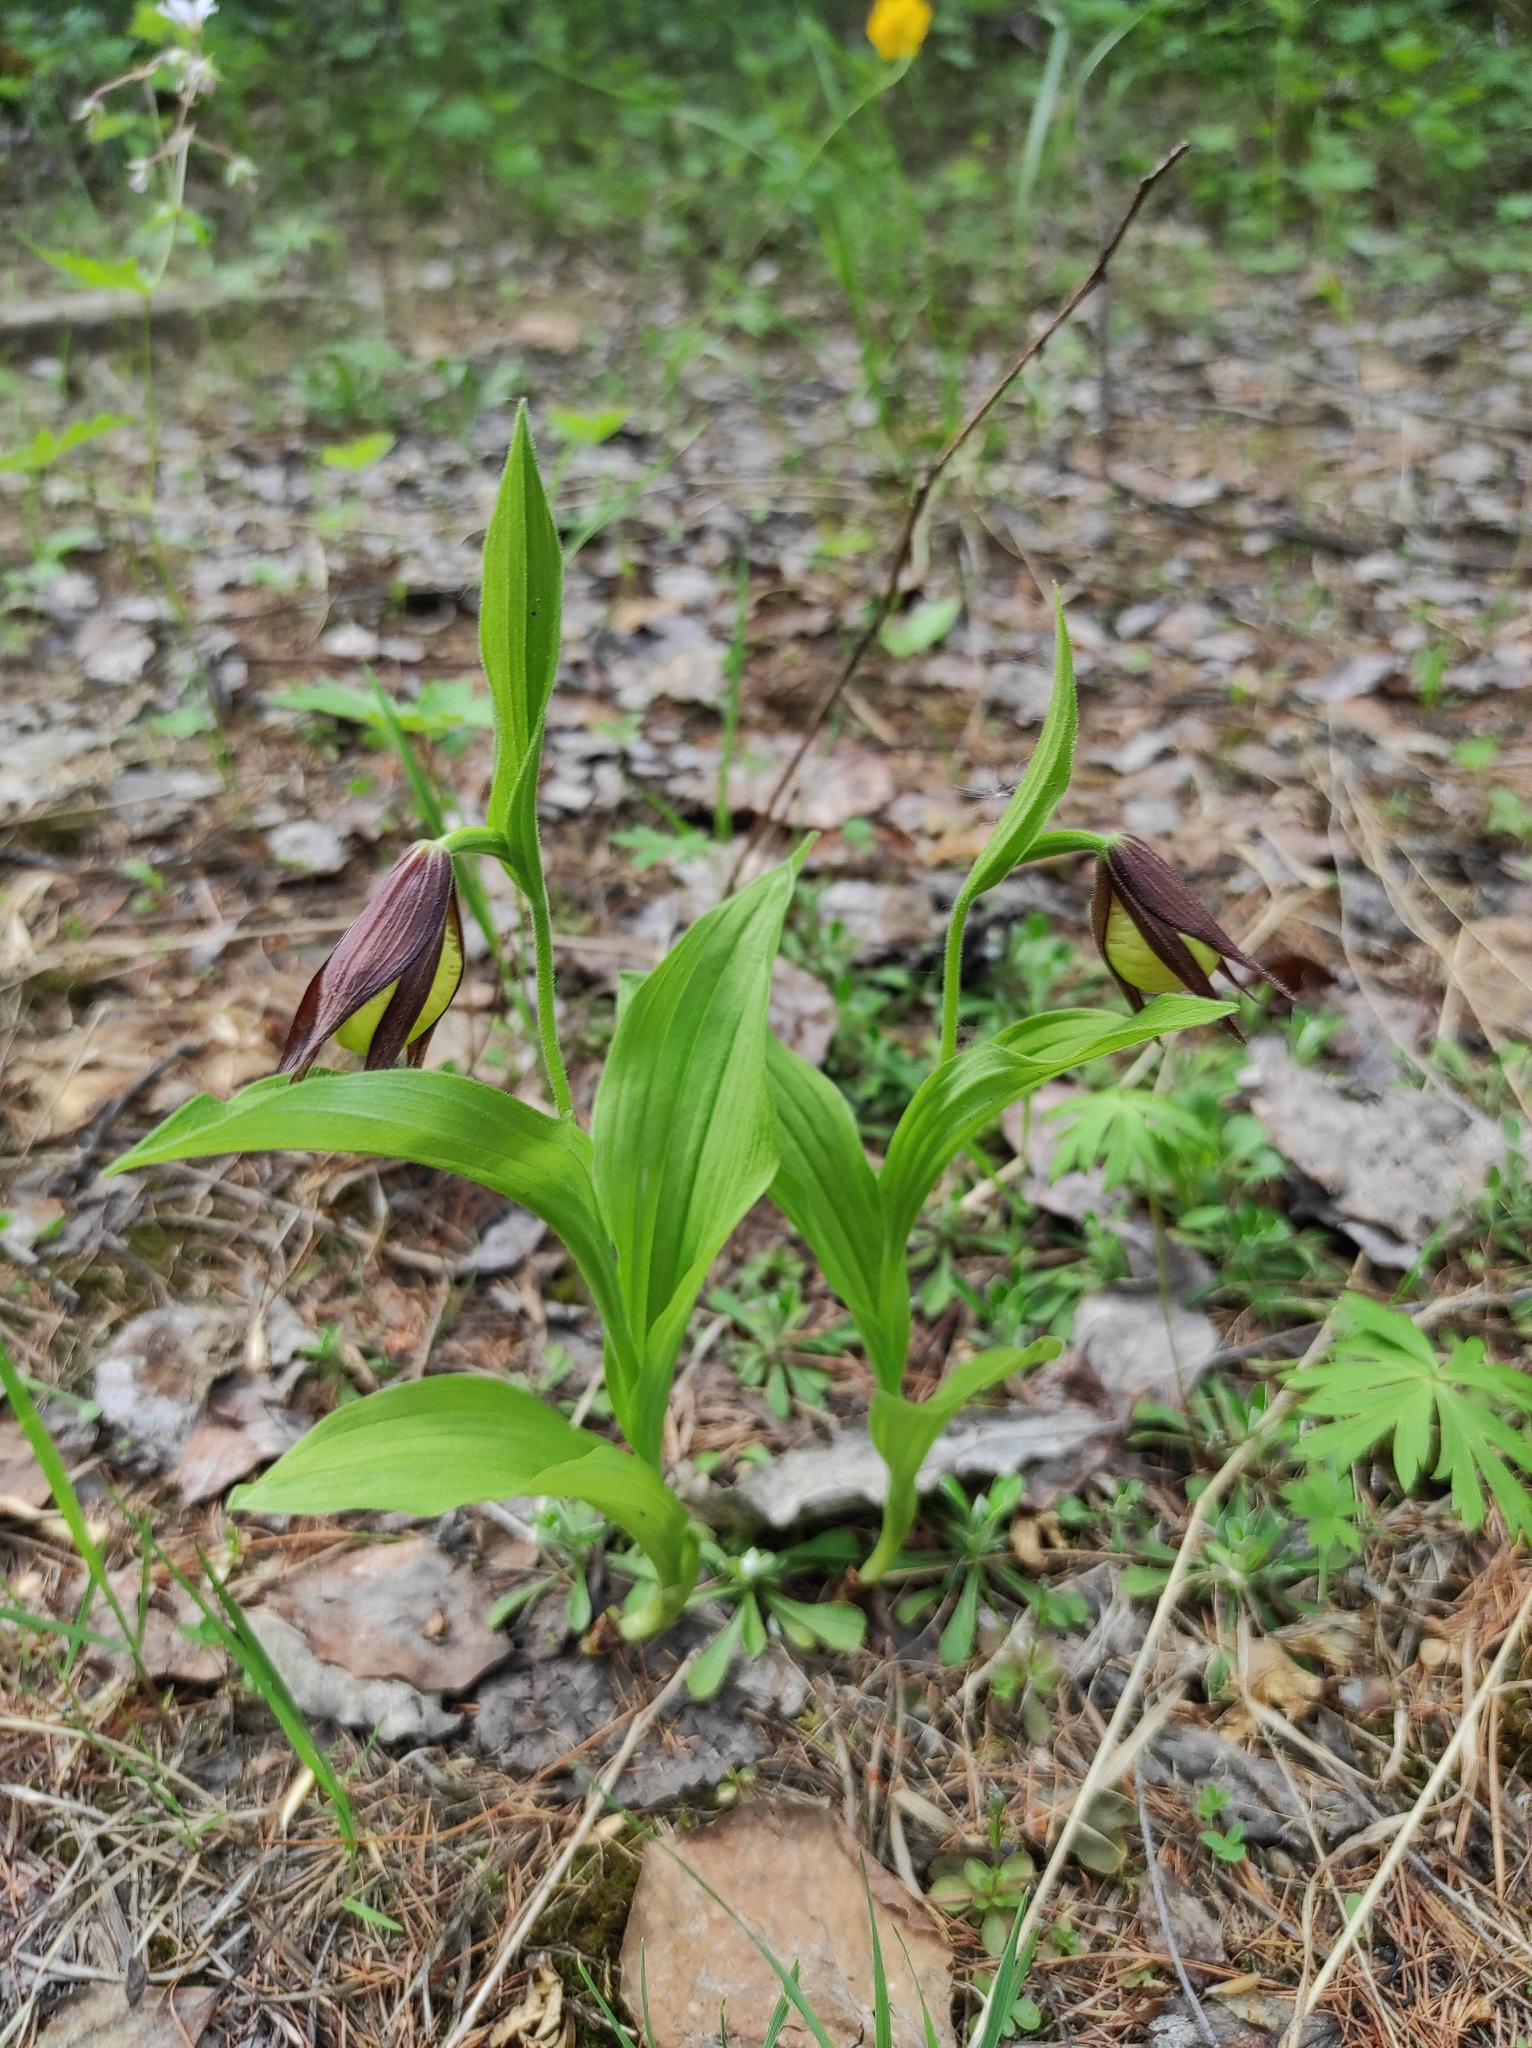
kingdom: Plantae
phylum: Tracheophyta
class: Liliopsida
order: Asparagales
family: Orchidaceae
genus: Cypripedium
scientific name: Cypripedium calceolus
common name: Lady's-slipper
